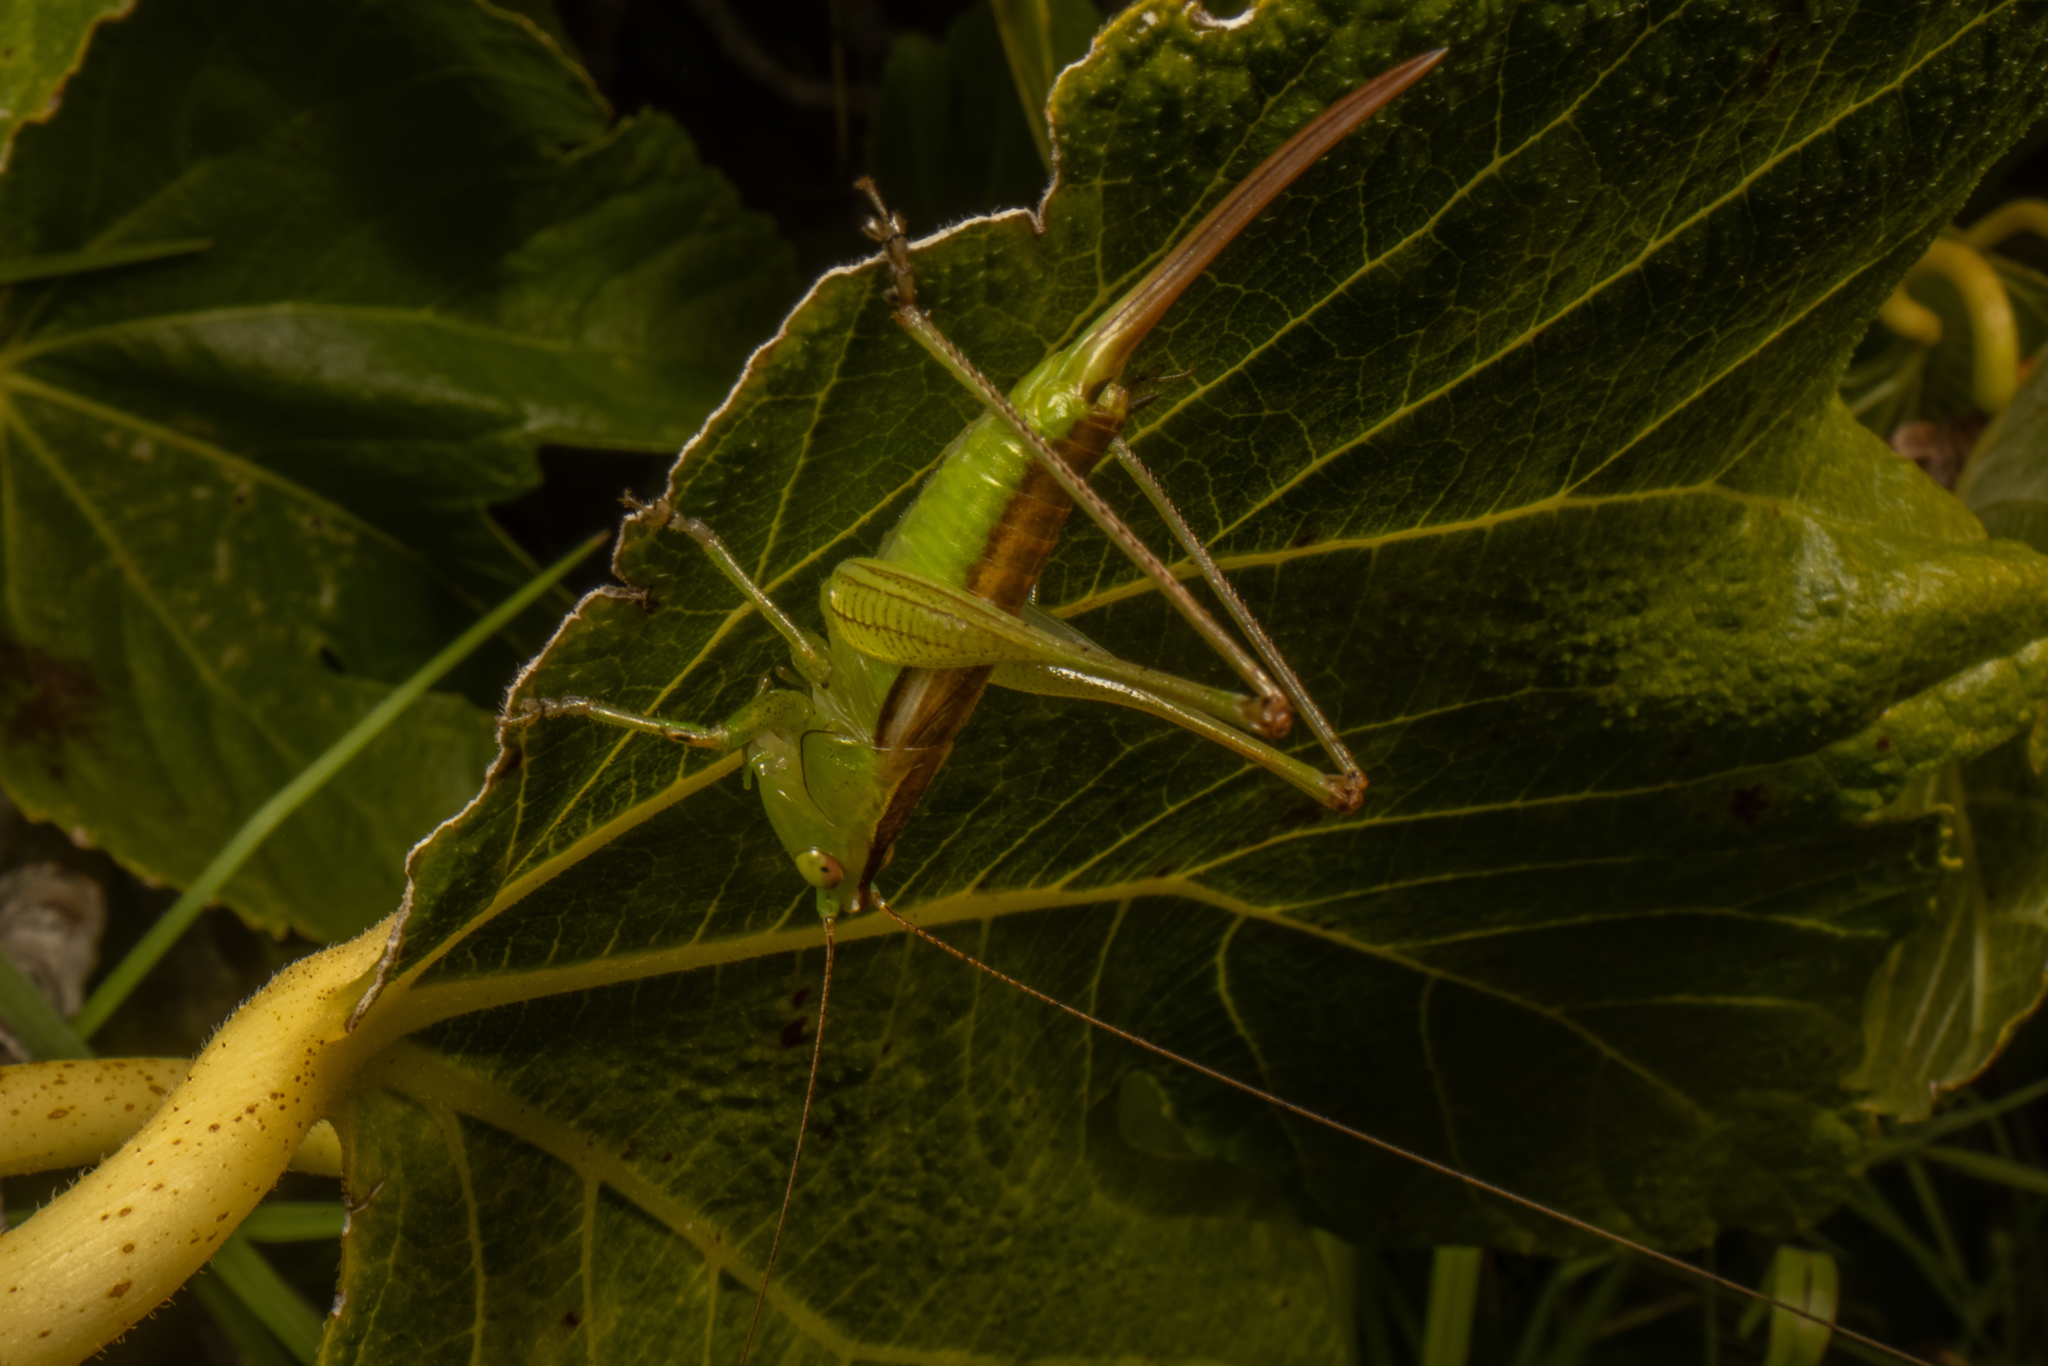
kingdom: Animalia
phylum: Arthropoda
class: Insecta
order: Orthoptera
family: Tettigoniidae
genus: Conocephalus
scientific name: Conocephalus semivittatus
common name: Blackish meadow katydid
